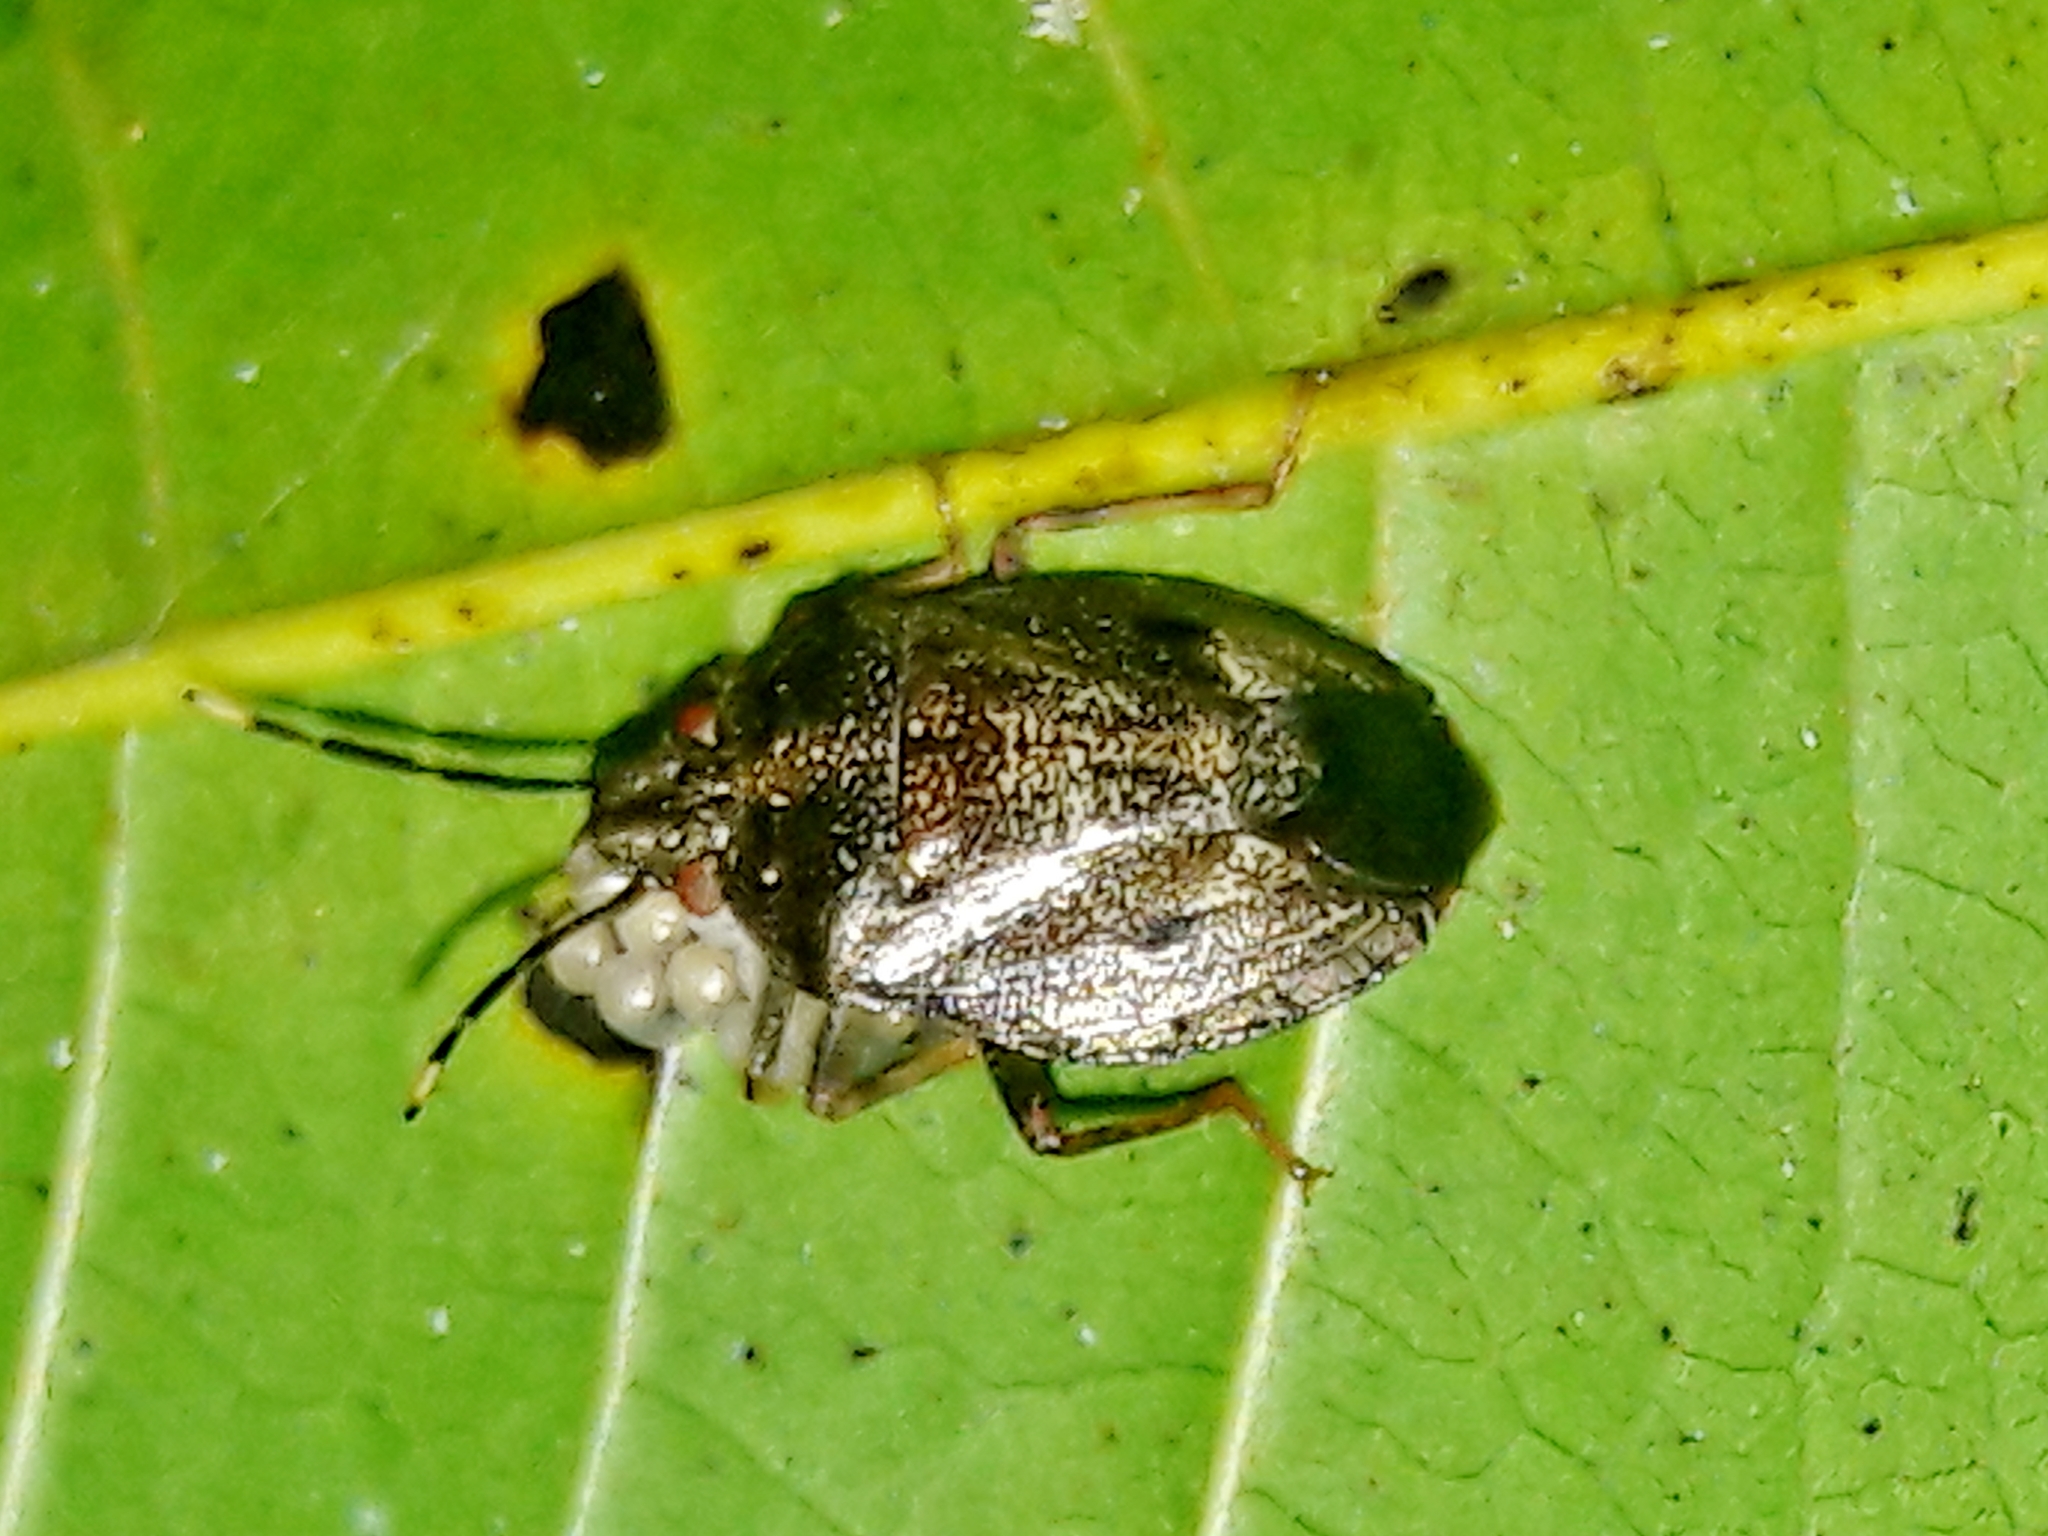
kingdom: Animalia
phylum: Arthropoda
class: Insecta
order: Hemiptera
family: Pentatomidae
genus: Antiteuchus
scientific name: Antiteuchus tripterus
